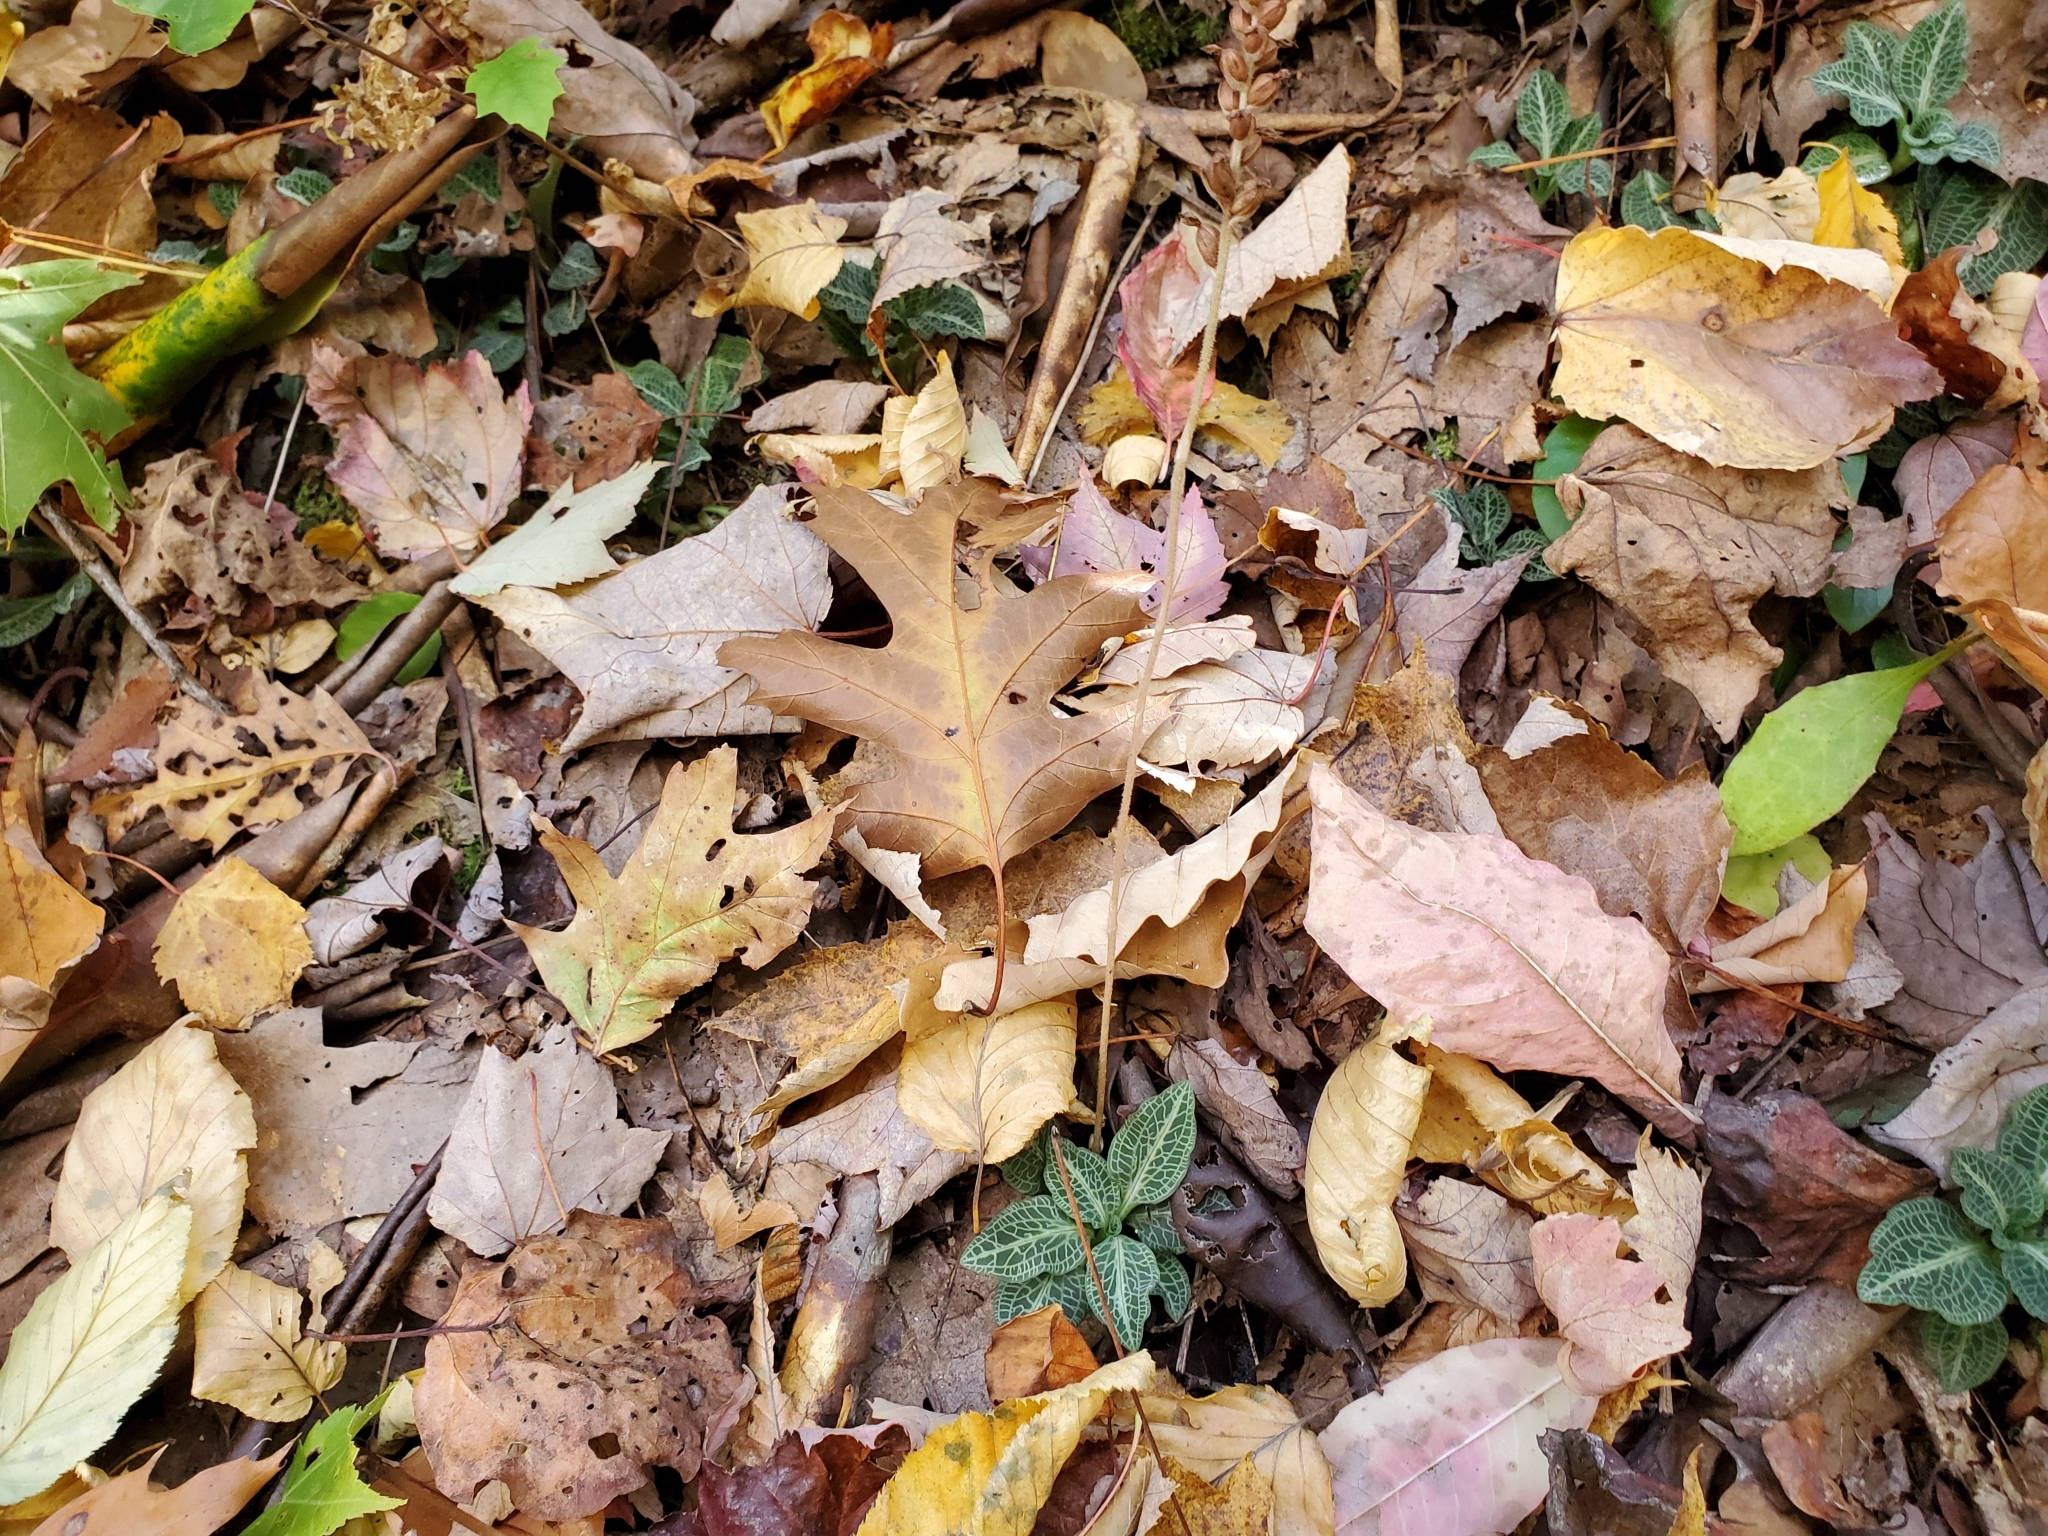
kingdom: Plantae
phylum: Tracheophyta
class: Liliopsida
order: Asparagales
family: Orchidaceae
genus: Goodyera
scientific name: Goodyera pubescens
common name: Downy rattlesnake-plantain
